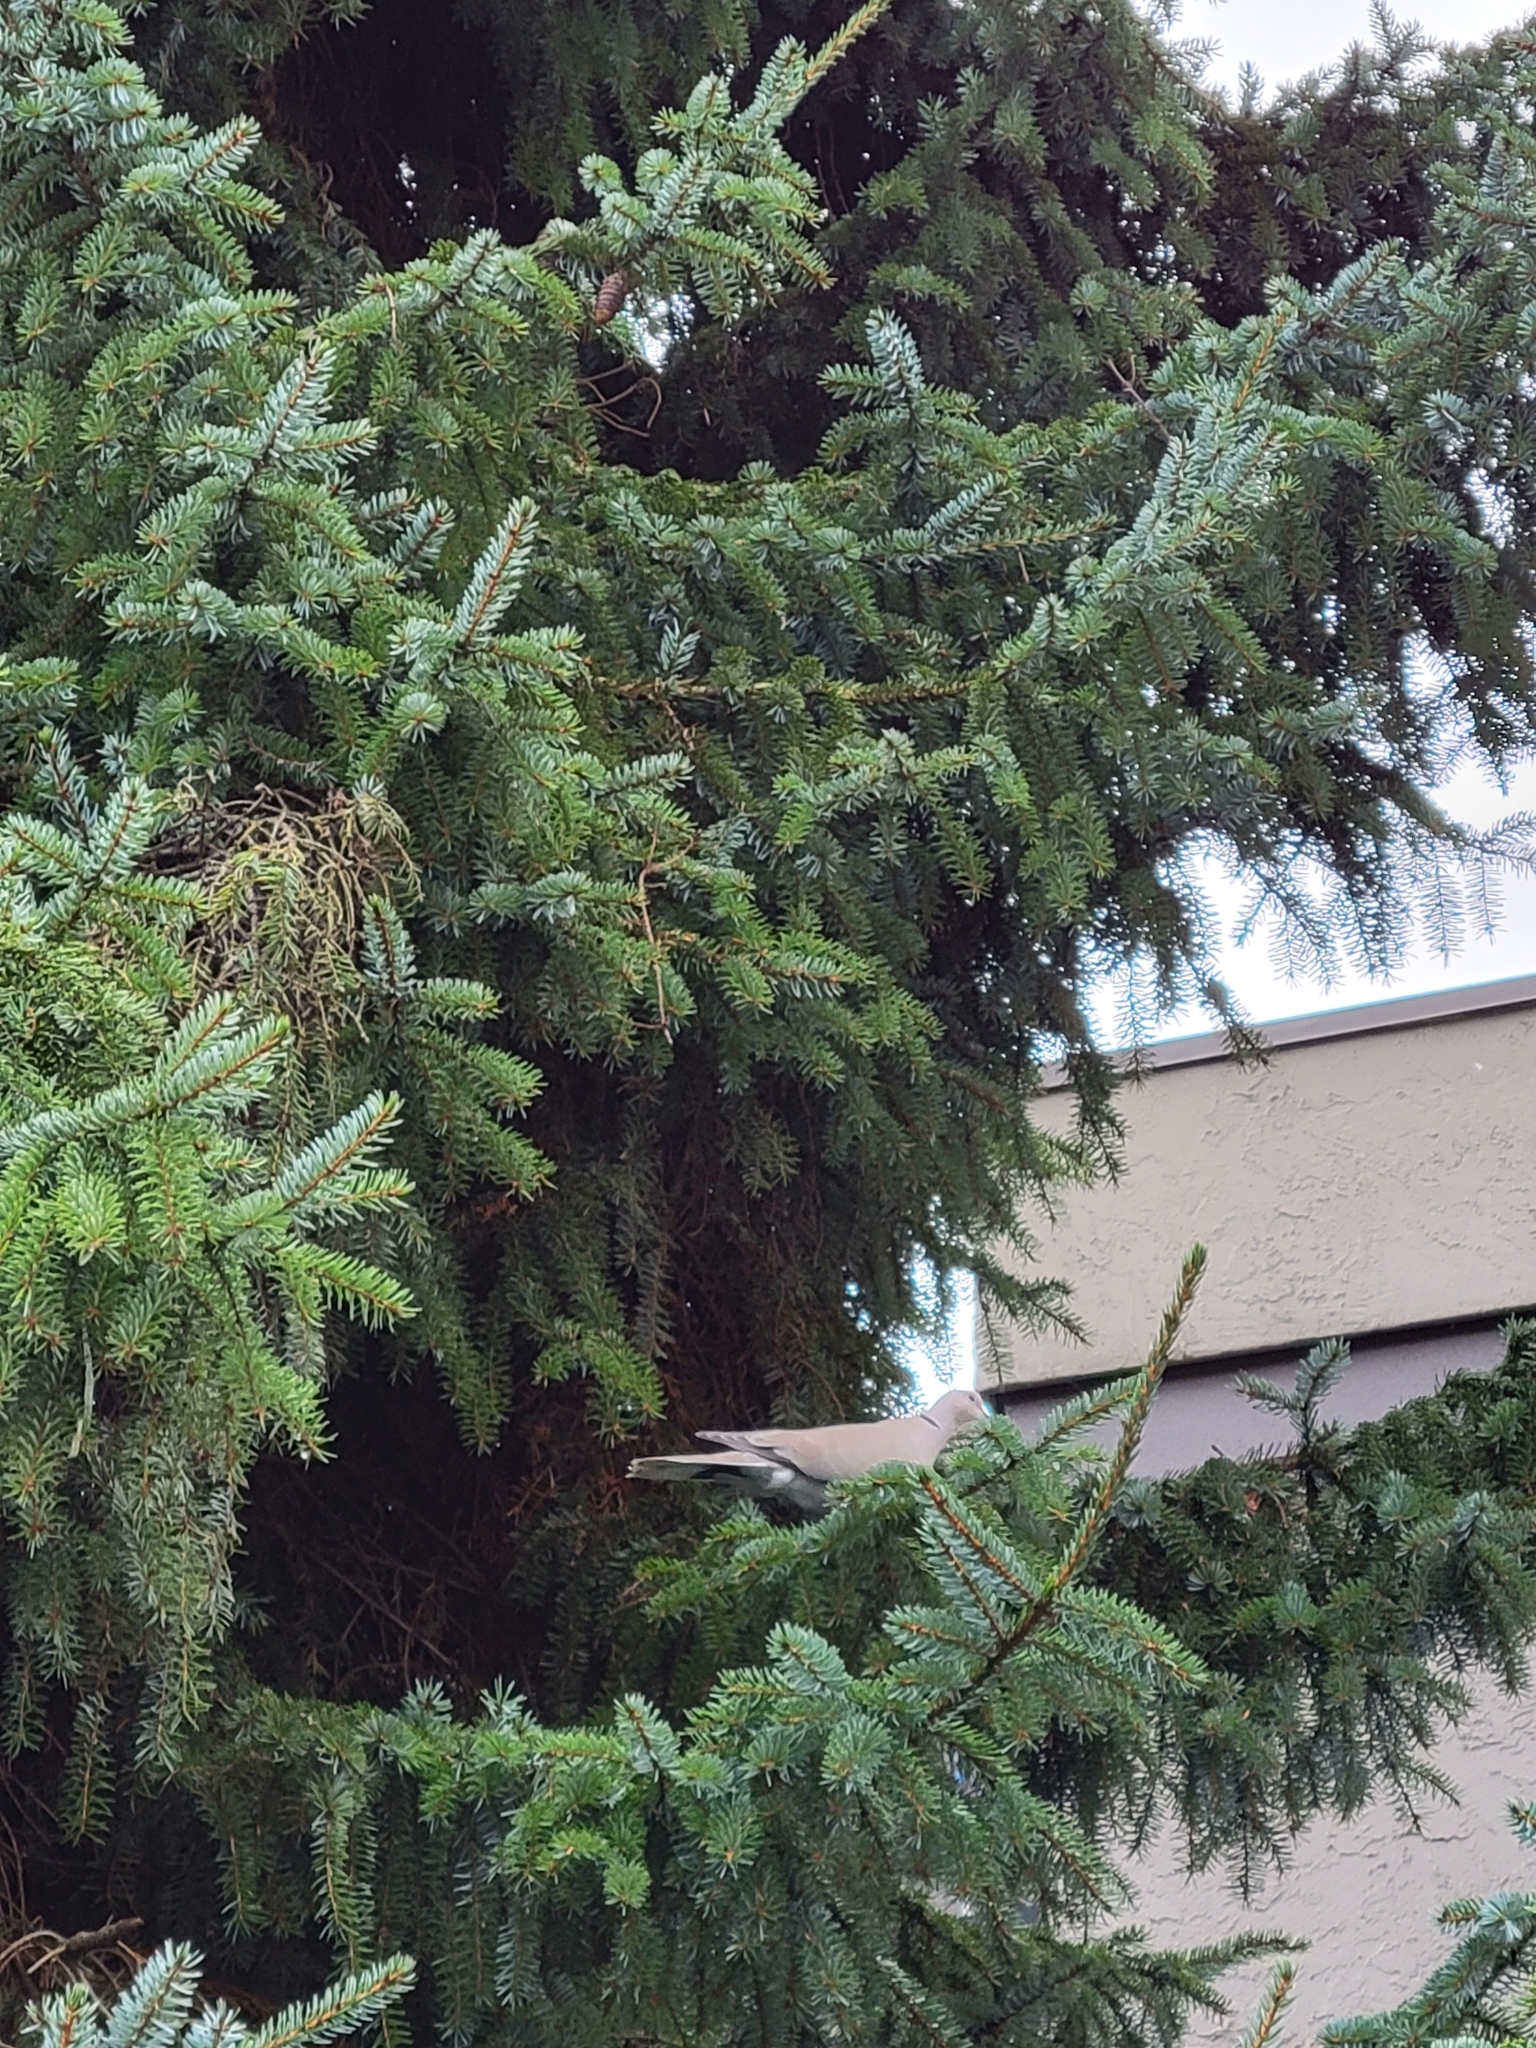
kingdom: Animalia
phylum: Chordata
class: Aves
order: Columbiformes
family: Columbidae
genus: Streptopelia
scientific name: Streptopelia decaocto
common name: Eurasian collared dove
